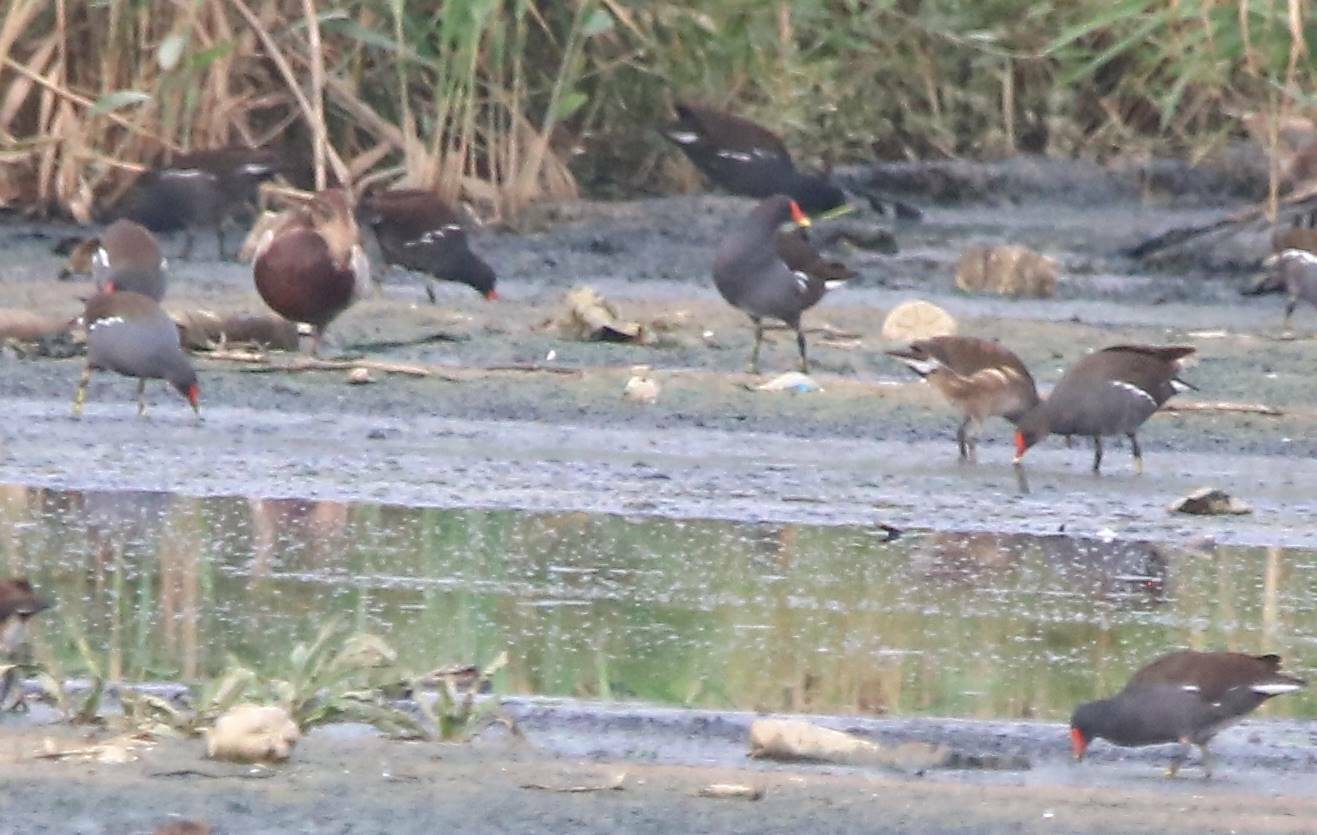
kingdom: Animalia
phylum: Chordata
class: Aves
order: Gruiformes
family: Rallidae
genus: Gallinula
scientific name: Gallinula chloropus
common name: Common moorhen
